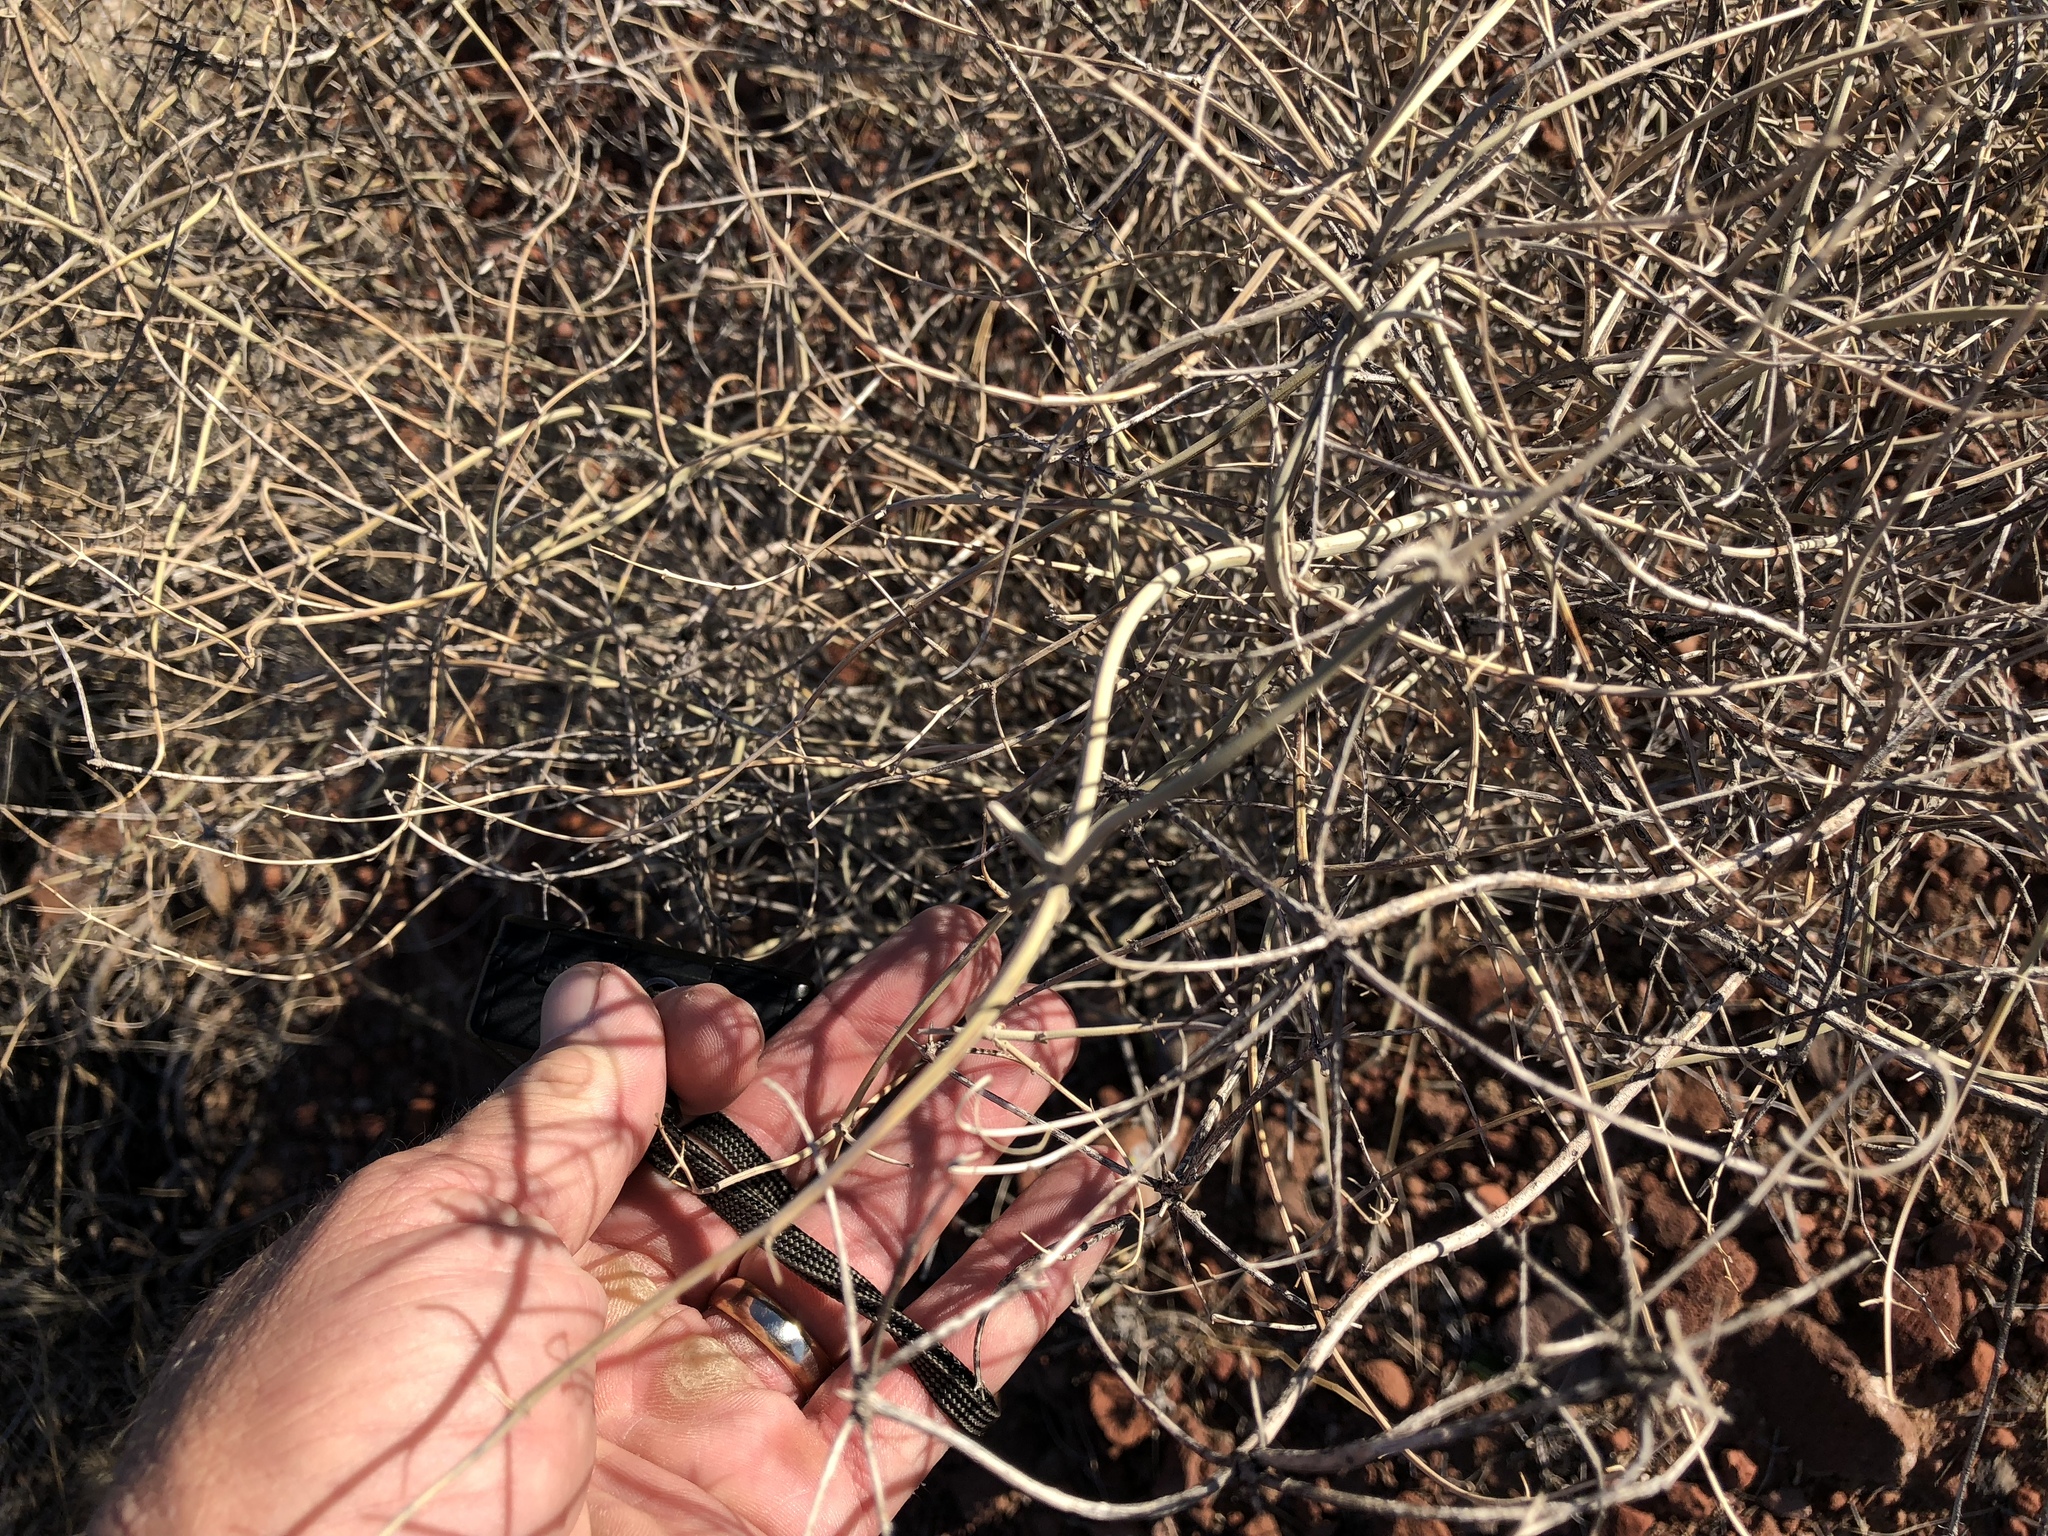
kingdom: Plantae
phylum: Tracheophyta
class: Magnoliopsida
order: Lamiales
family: Lamiaceae
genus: Scutellaria
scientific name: Scutellaria mexicana
